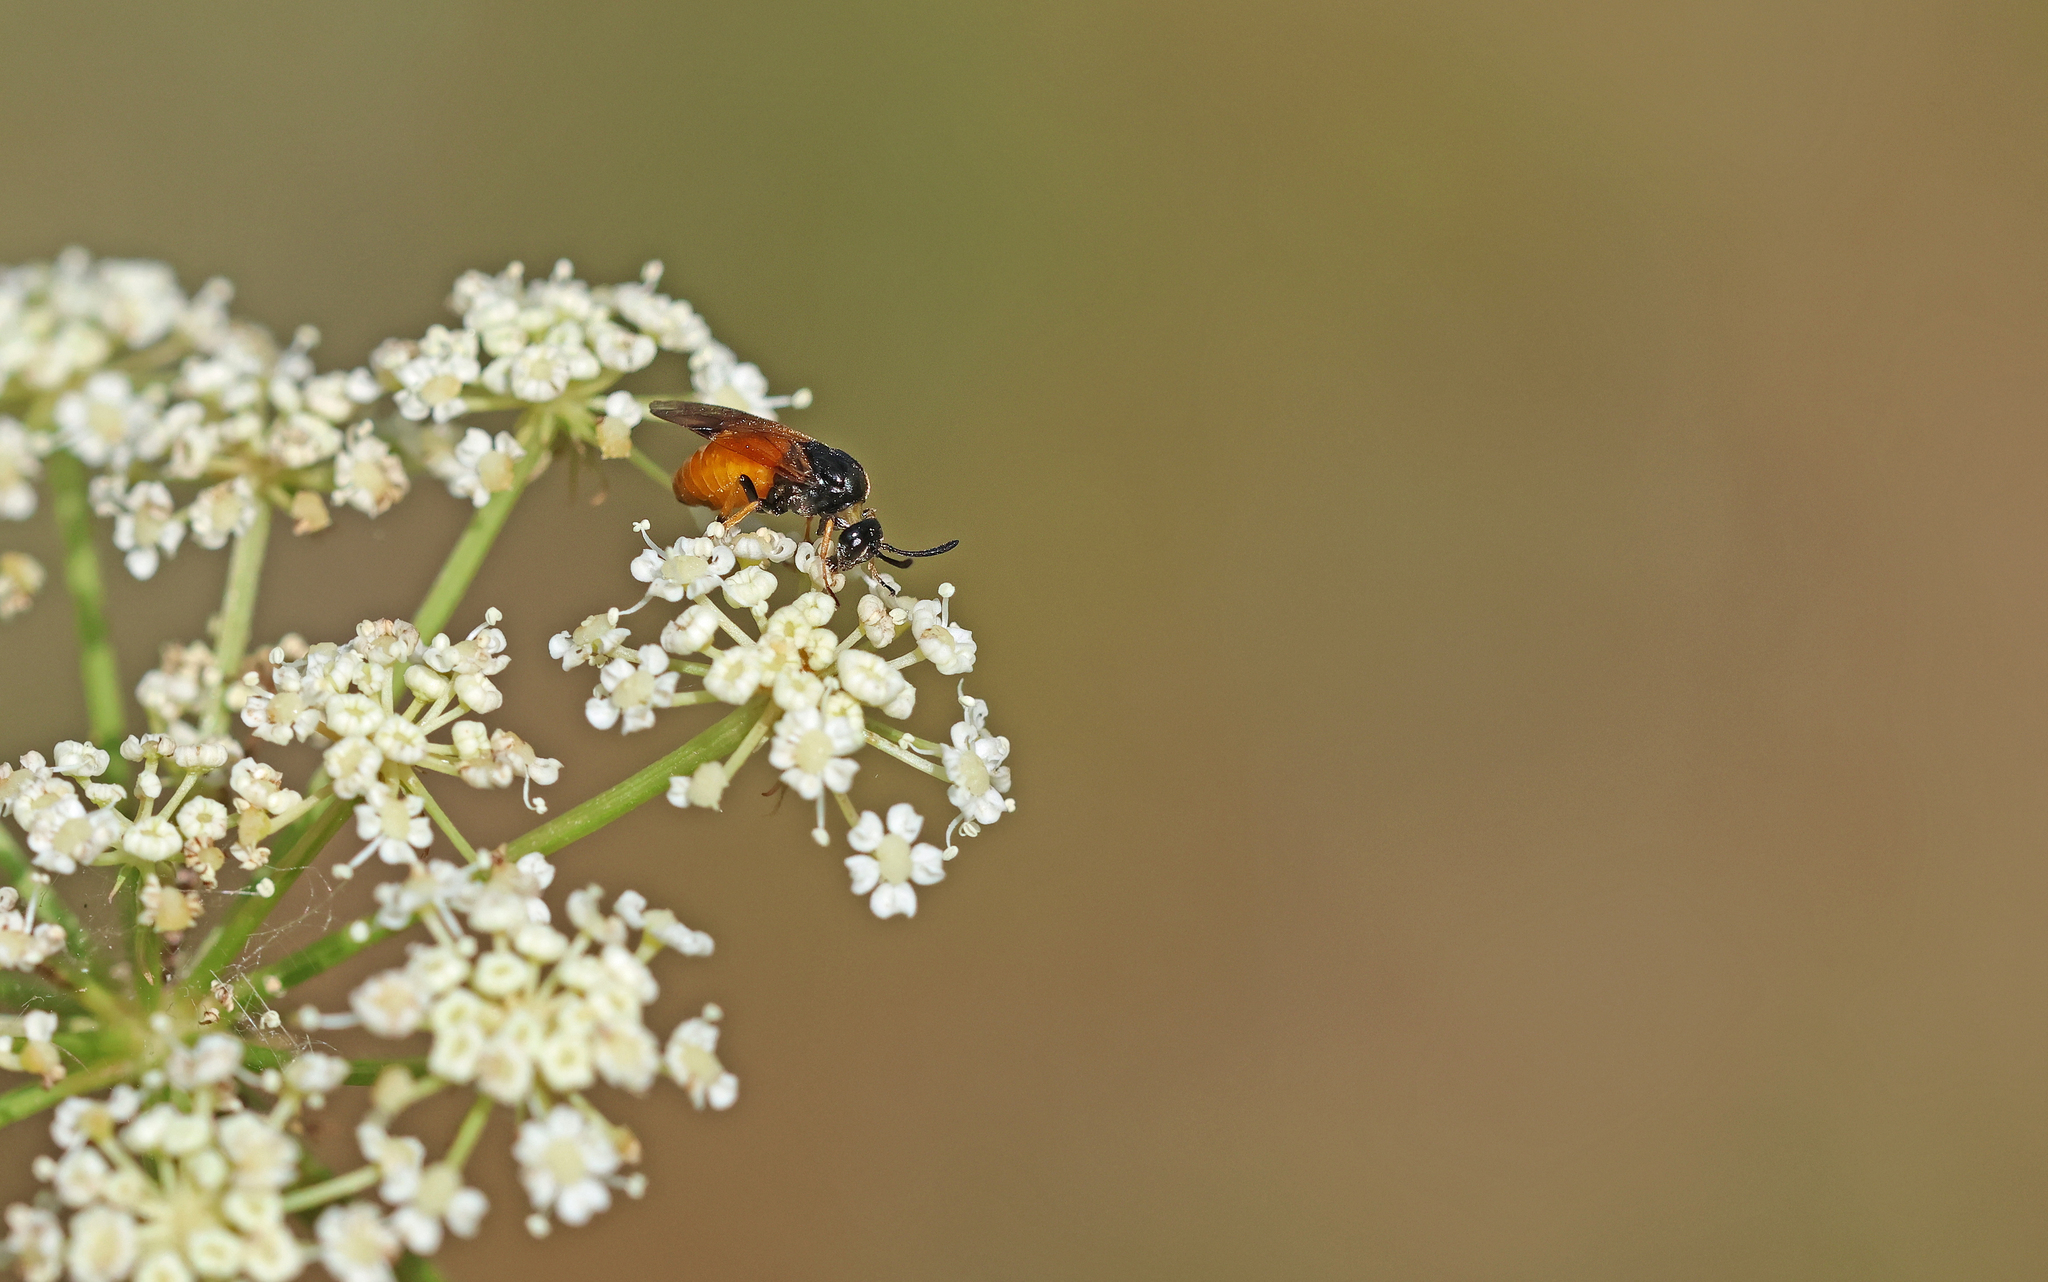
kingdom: Animalia
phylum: Arthropoda
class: Insecta
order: Hymenoptera
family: Argidae
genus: Arge
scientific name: Arge melanochra
